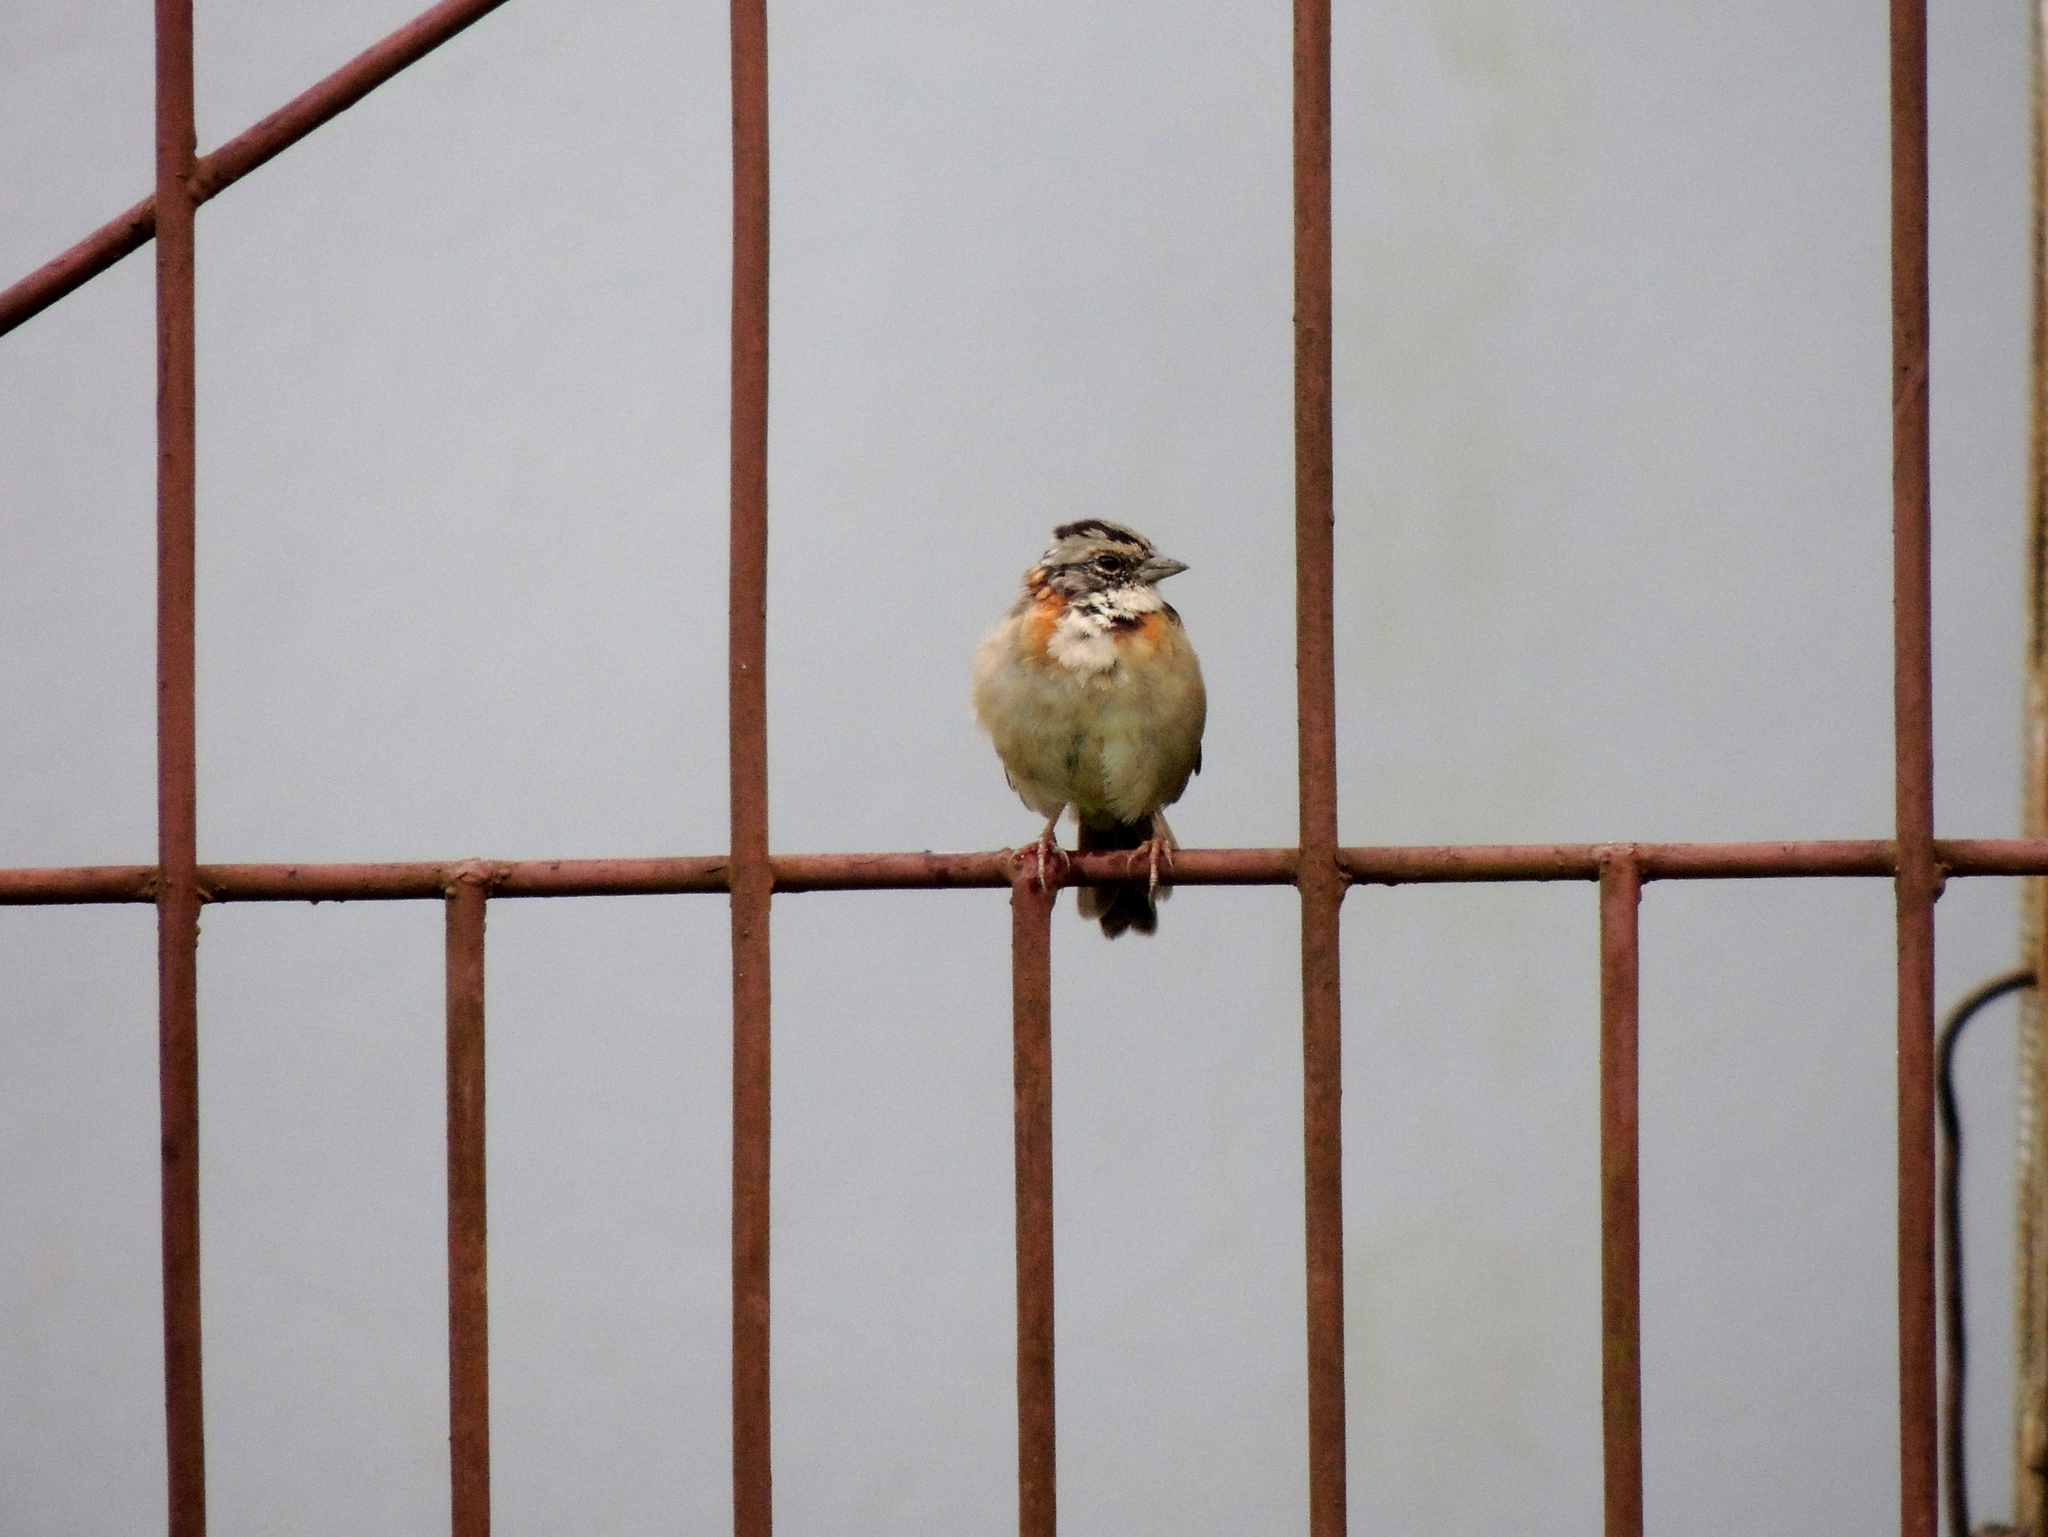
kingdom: Animalia
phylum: Chordata
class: Aves
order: Passeriformes
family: Passerellidae
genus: Zonotrichia
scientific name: Zonotrichia capensis
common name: Rufous-collared sparrow
